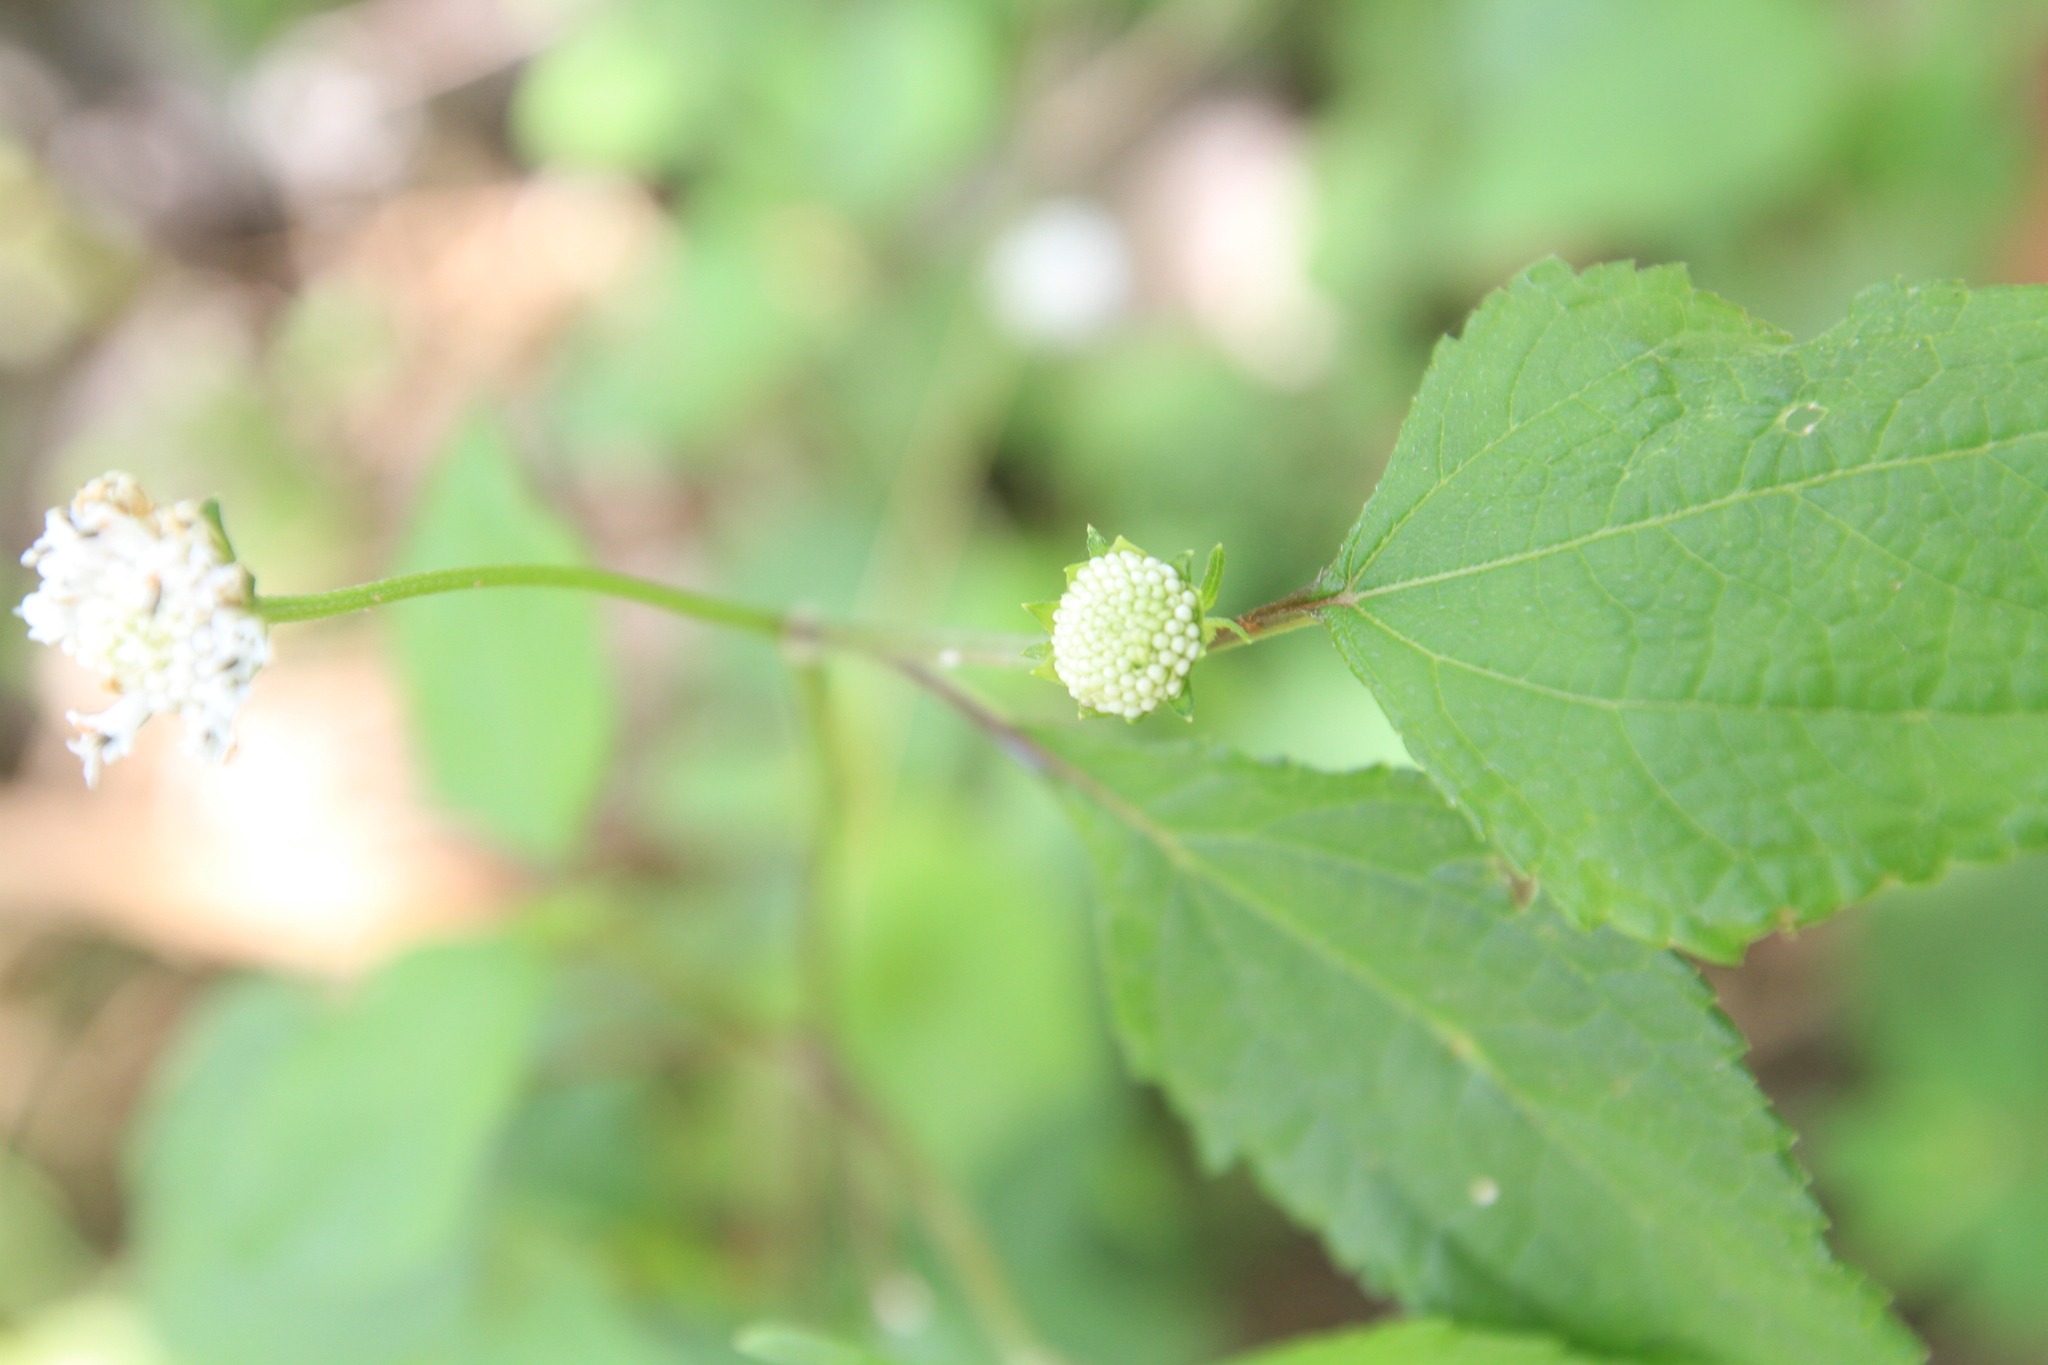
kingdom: Plantae
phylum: Tracheophyta
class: Magnoliopsida
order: Asterales
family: Asteraceae
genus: Melanthera
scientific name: Melanthera nivea
